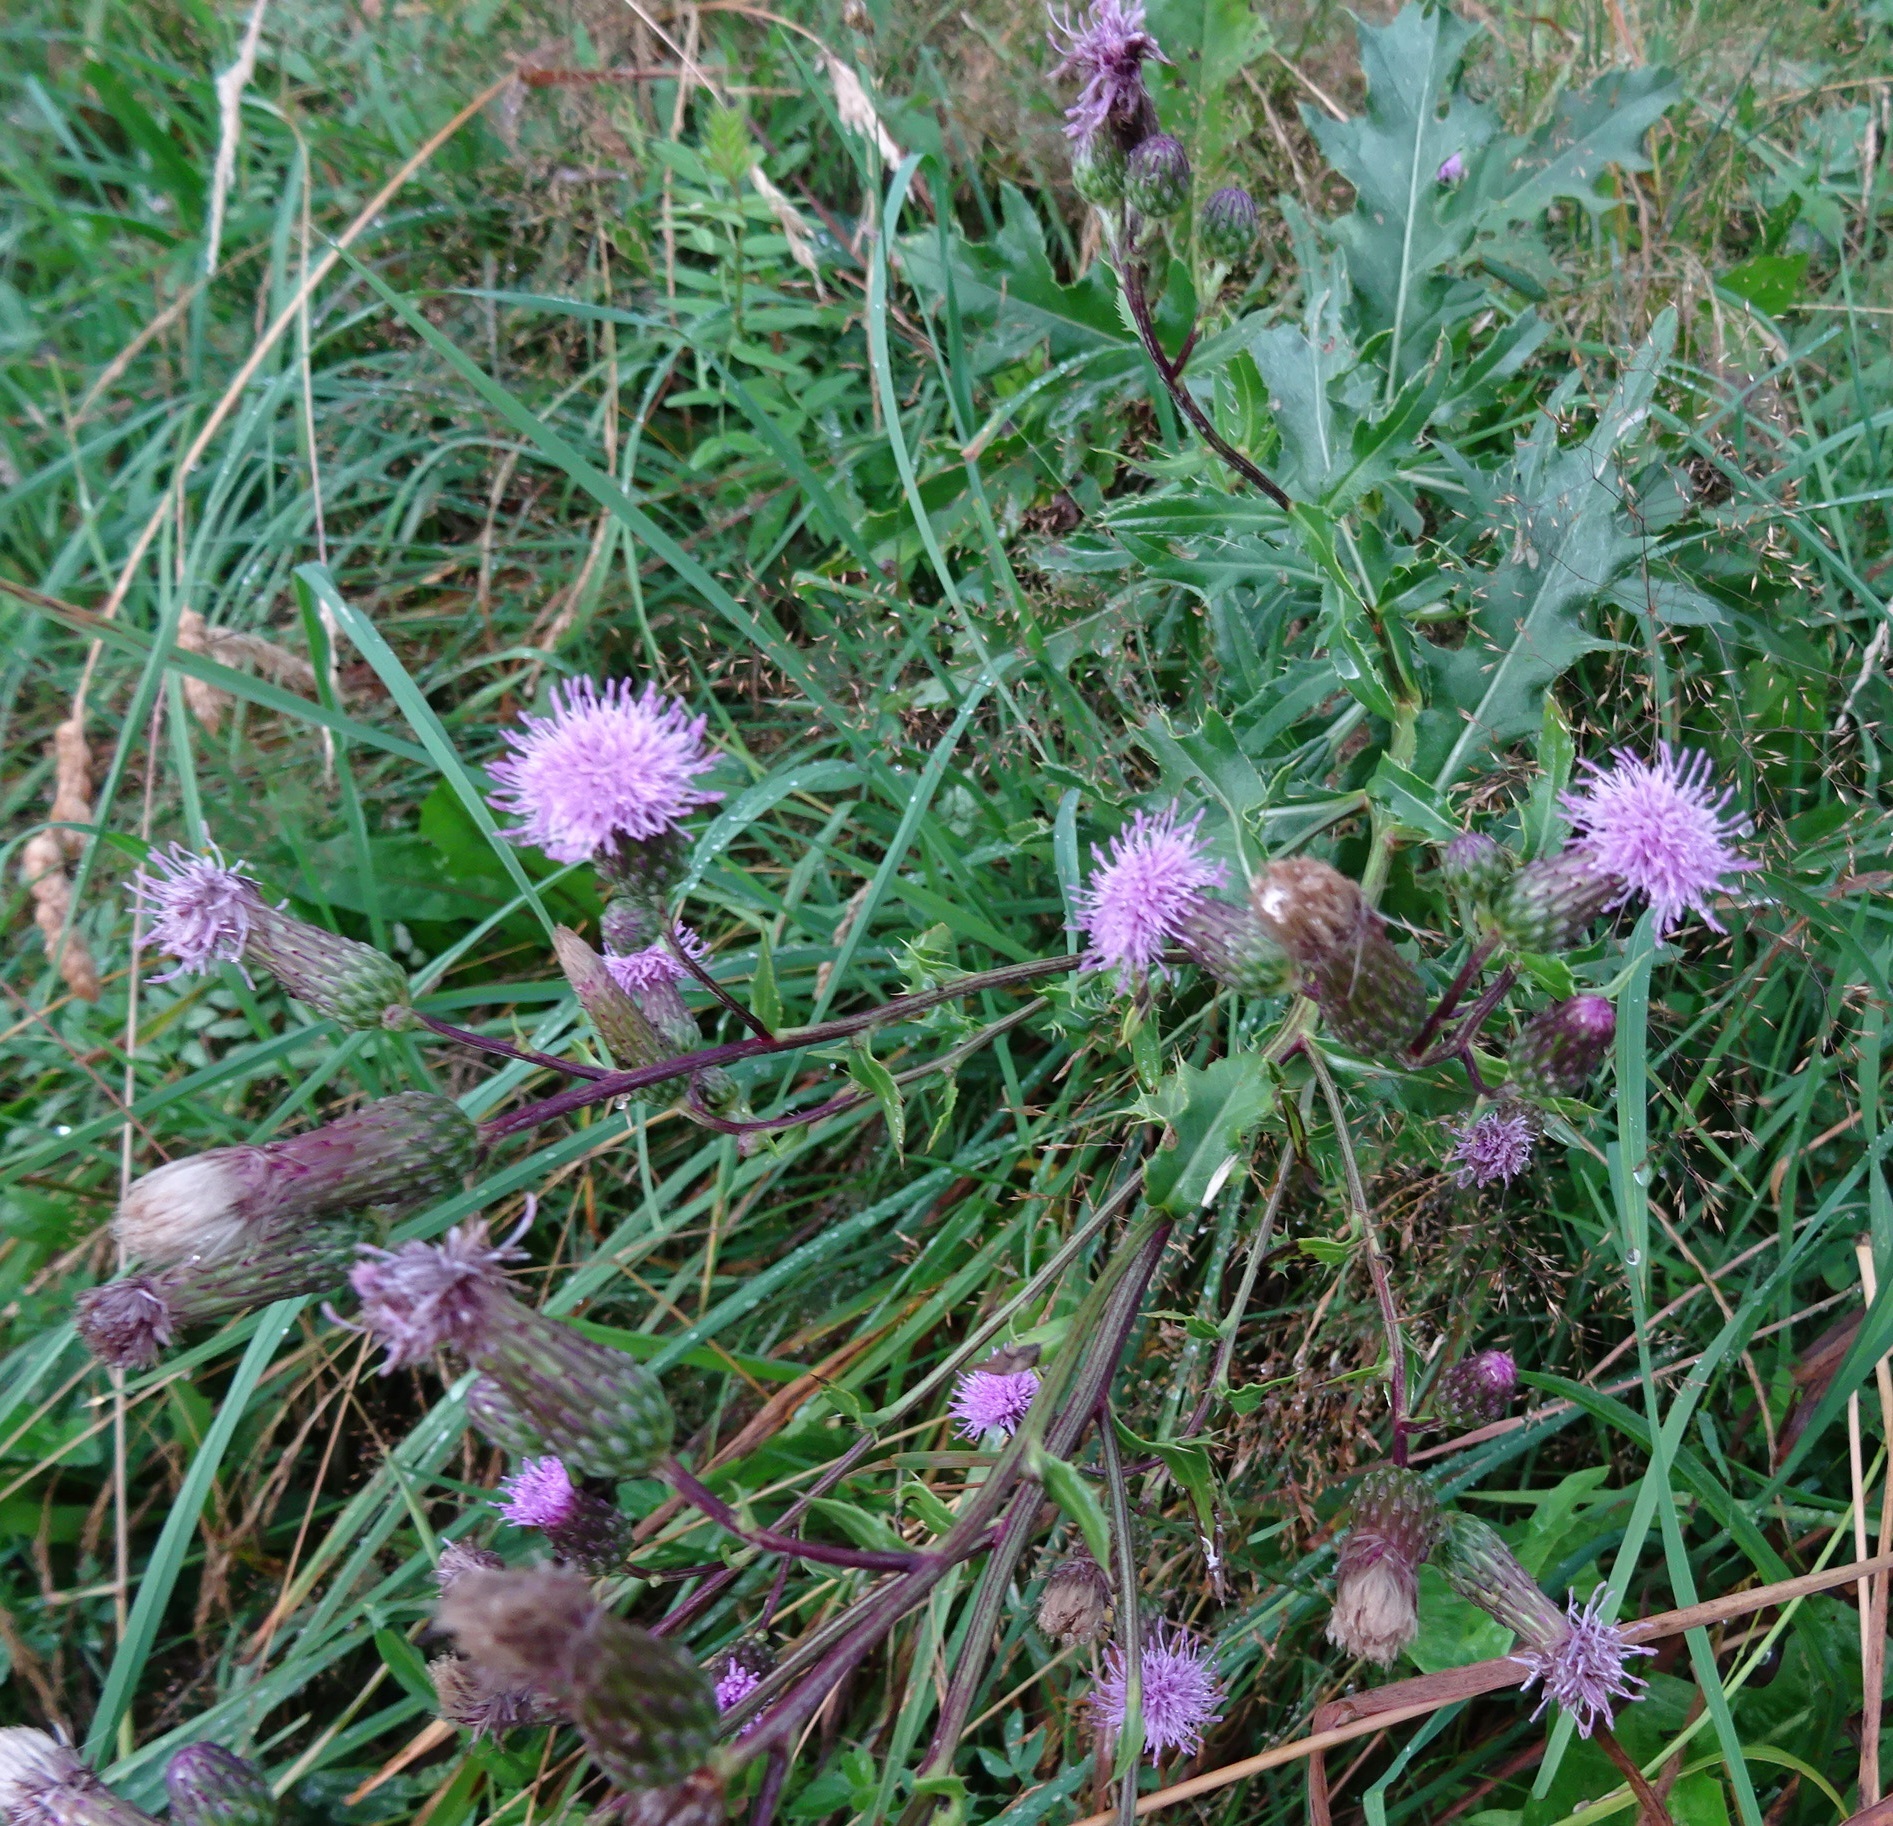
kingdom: Plantae
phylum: Tracheophyta
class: Magnoliopsida
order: Asterales
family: Asteraceae
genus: Cirsium
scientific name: Cirsium arvense
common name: Creeping thistle
